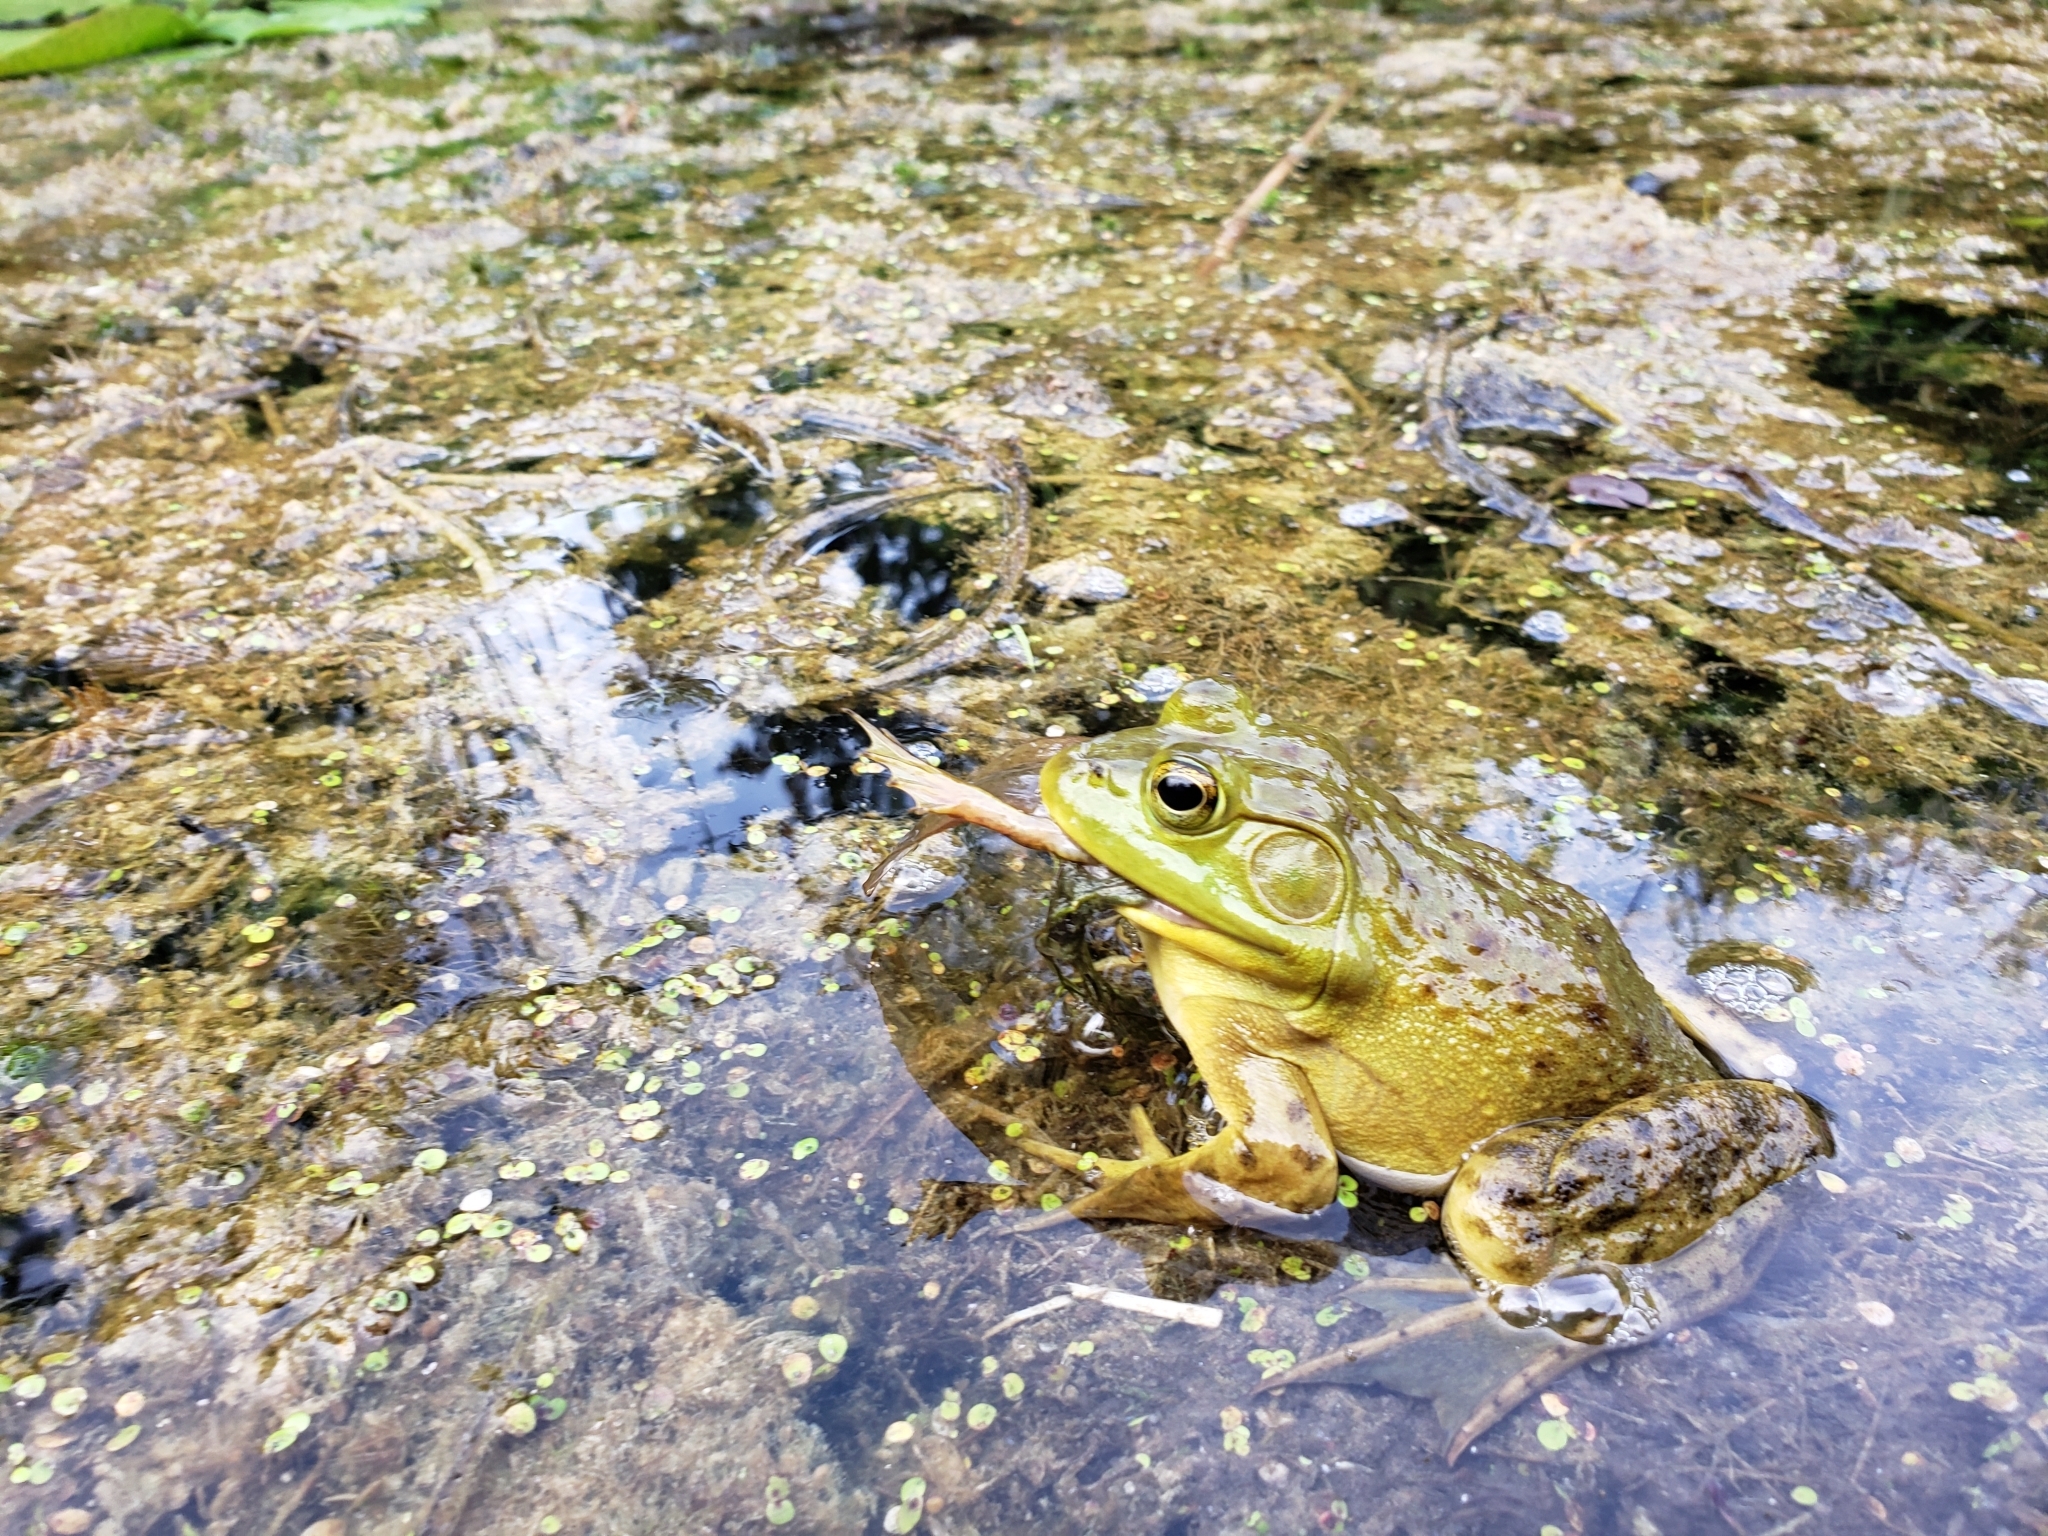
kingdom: Animalia
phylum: Chordata
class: Amphibia
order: Anura
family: Ranidae
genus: Lithobates
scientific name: Lithobates catesbeianus
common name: American bullfrog
